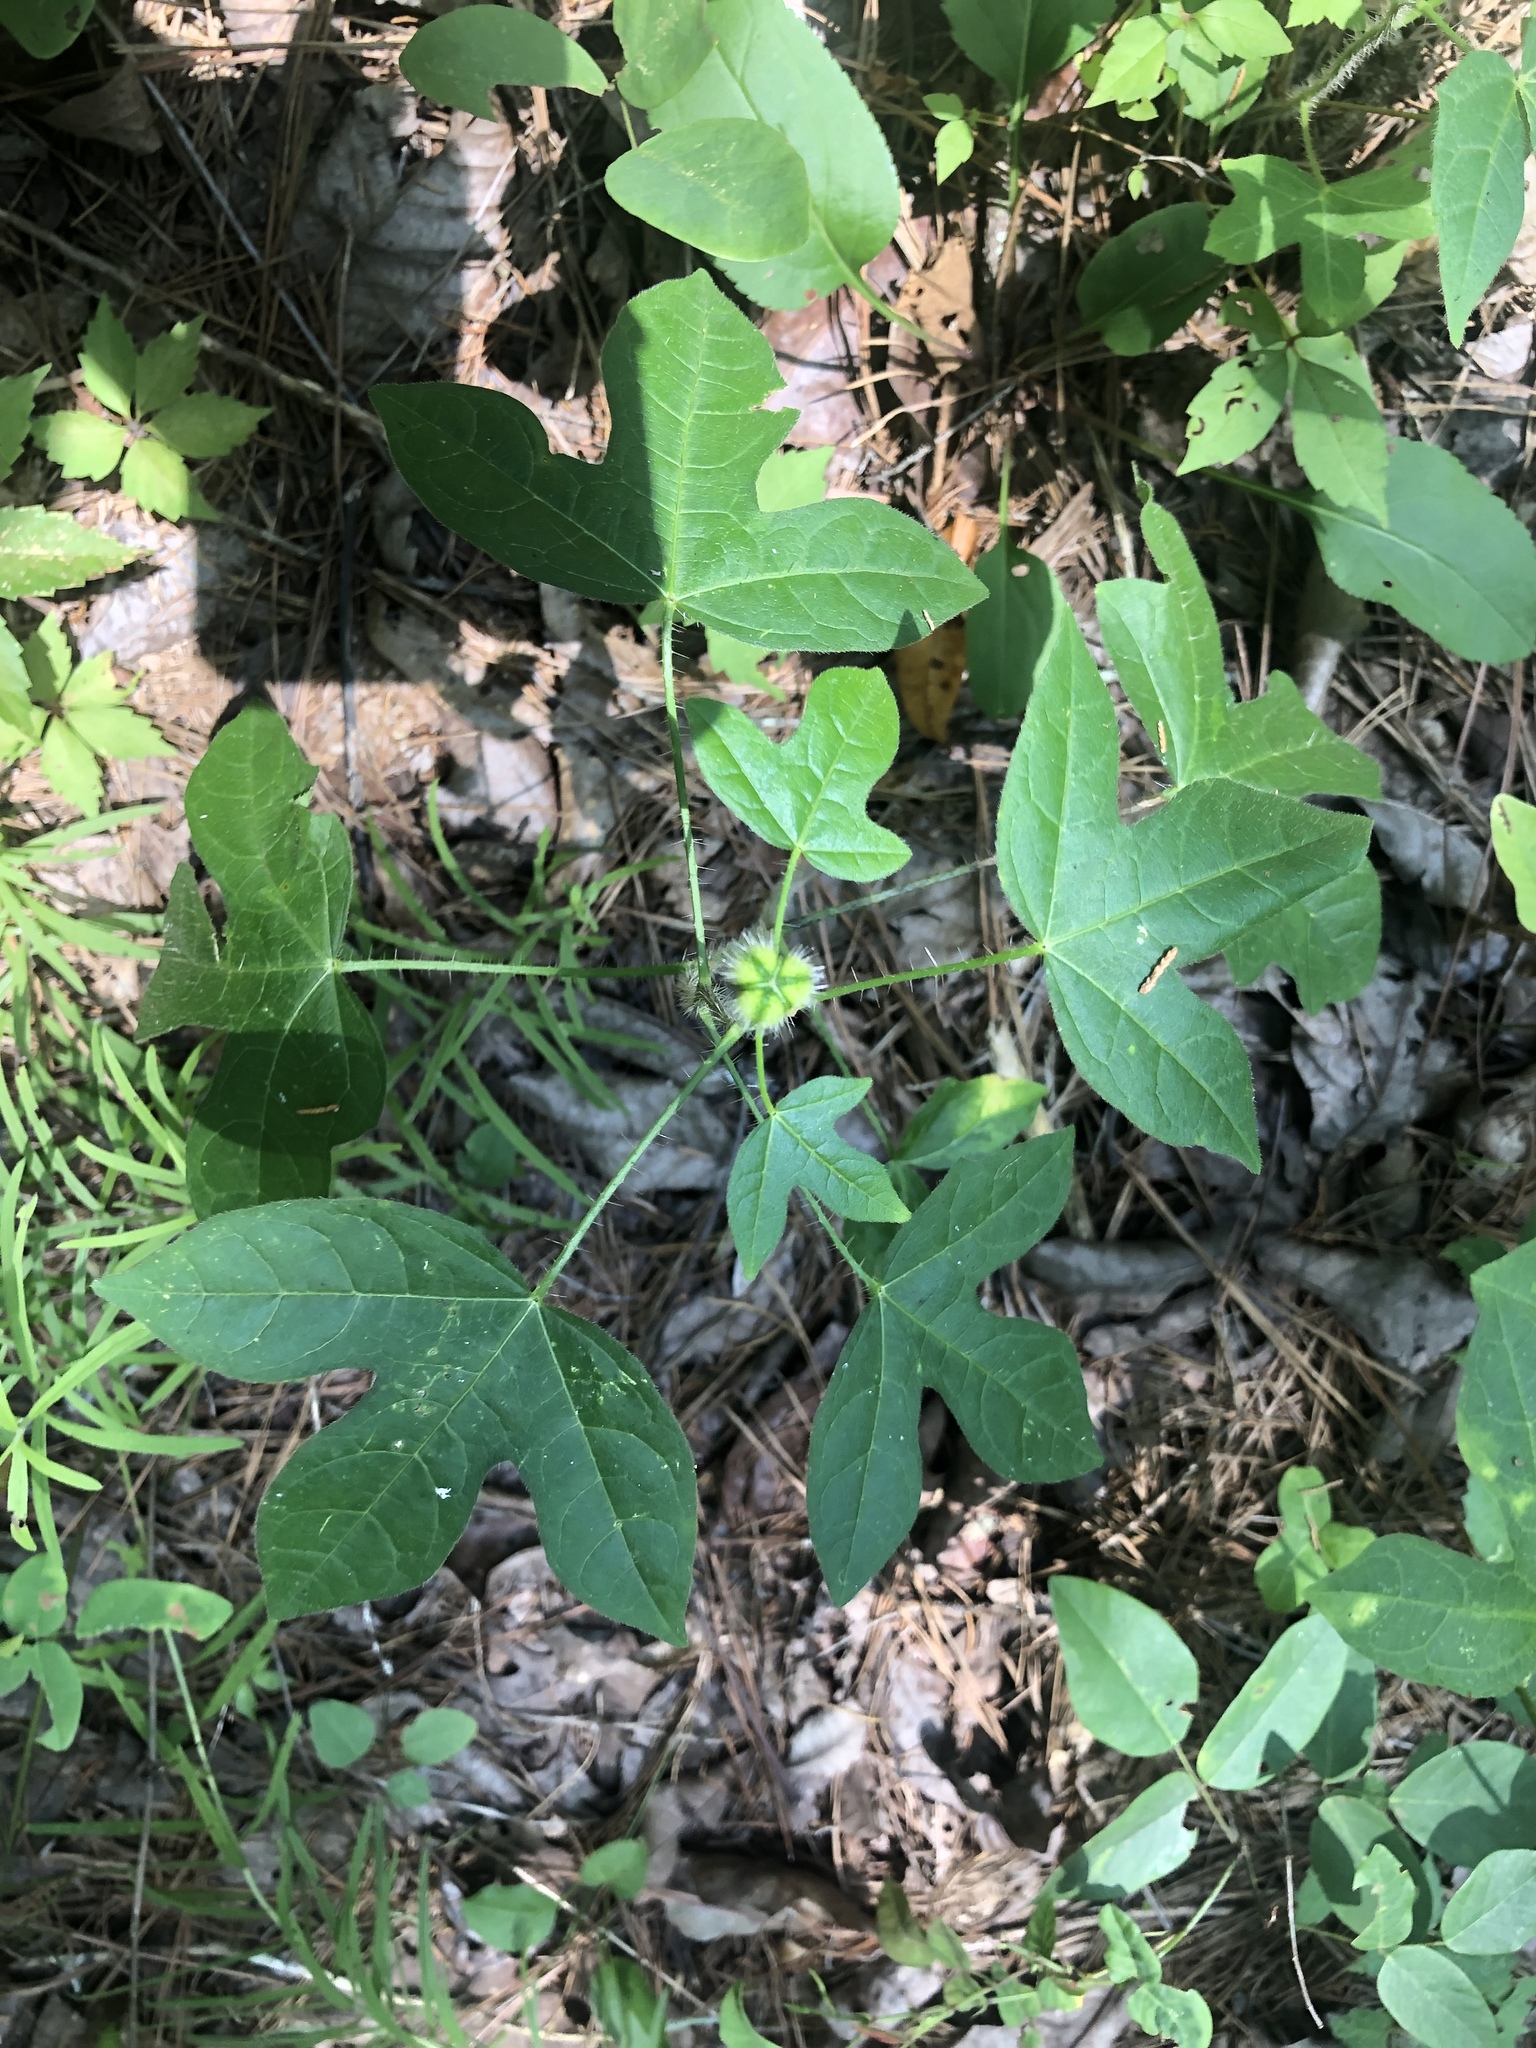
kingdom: Plantae
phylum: Tracheophyta
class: Magnoliopsida
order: Malpighiales
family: Euphorbiaceae
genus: Cnidoscolus
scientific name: Cnidoscolus stimulosus
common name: Bull-nettle
